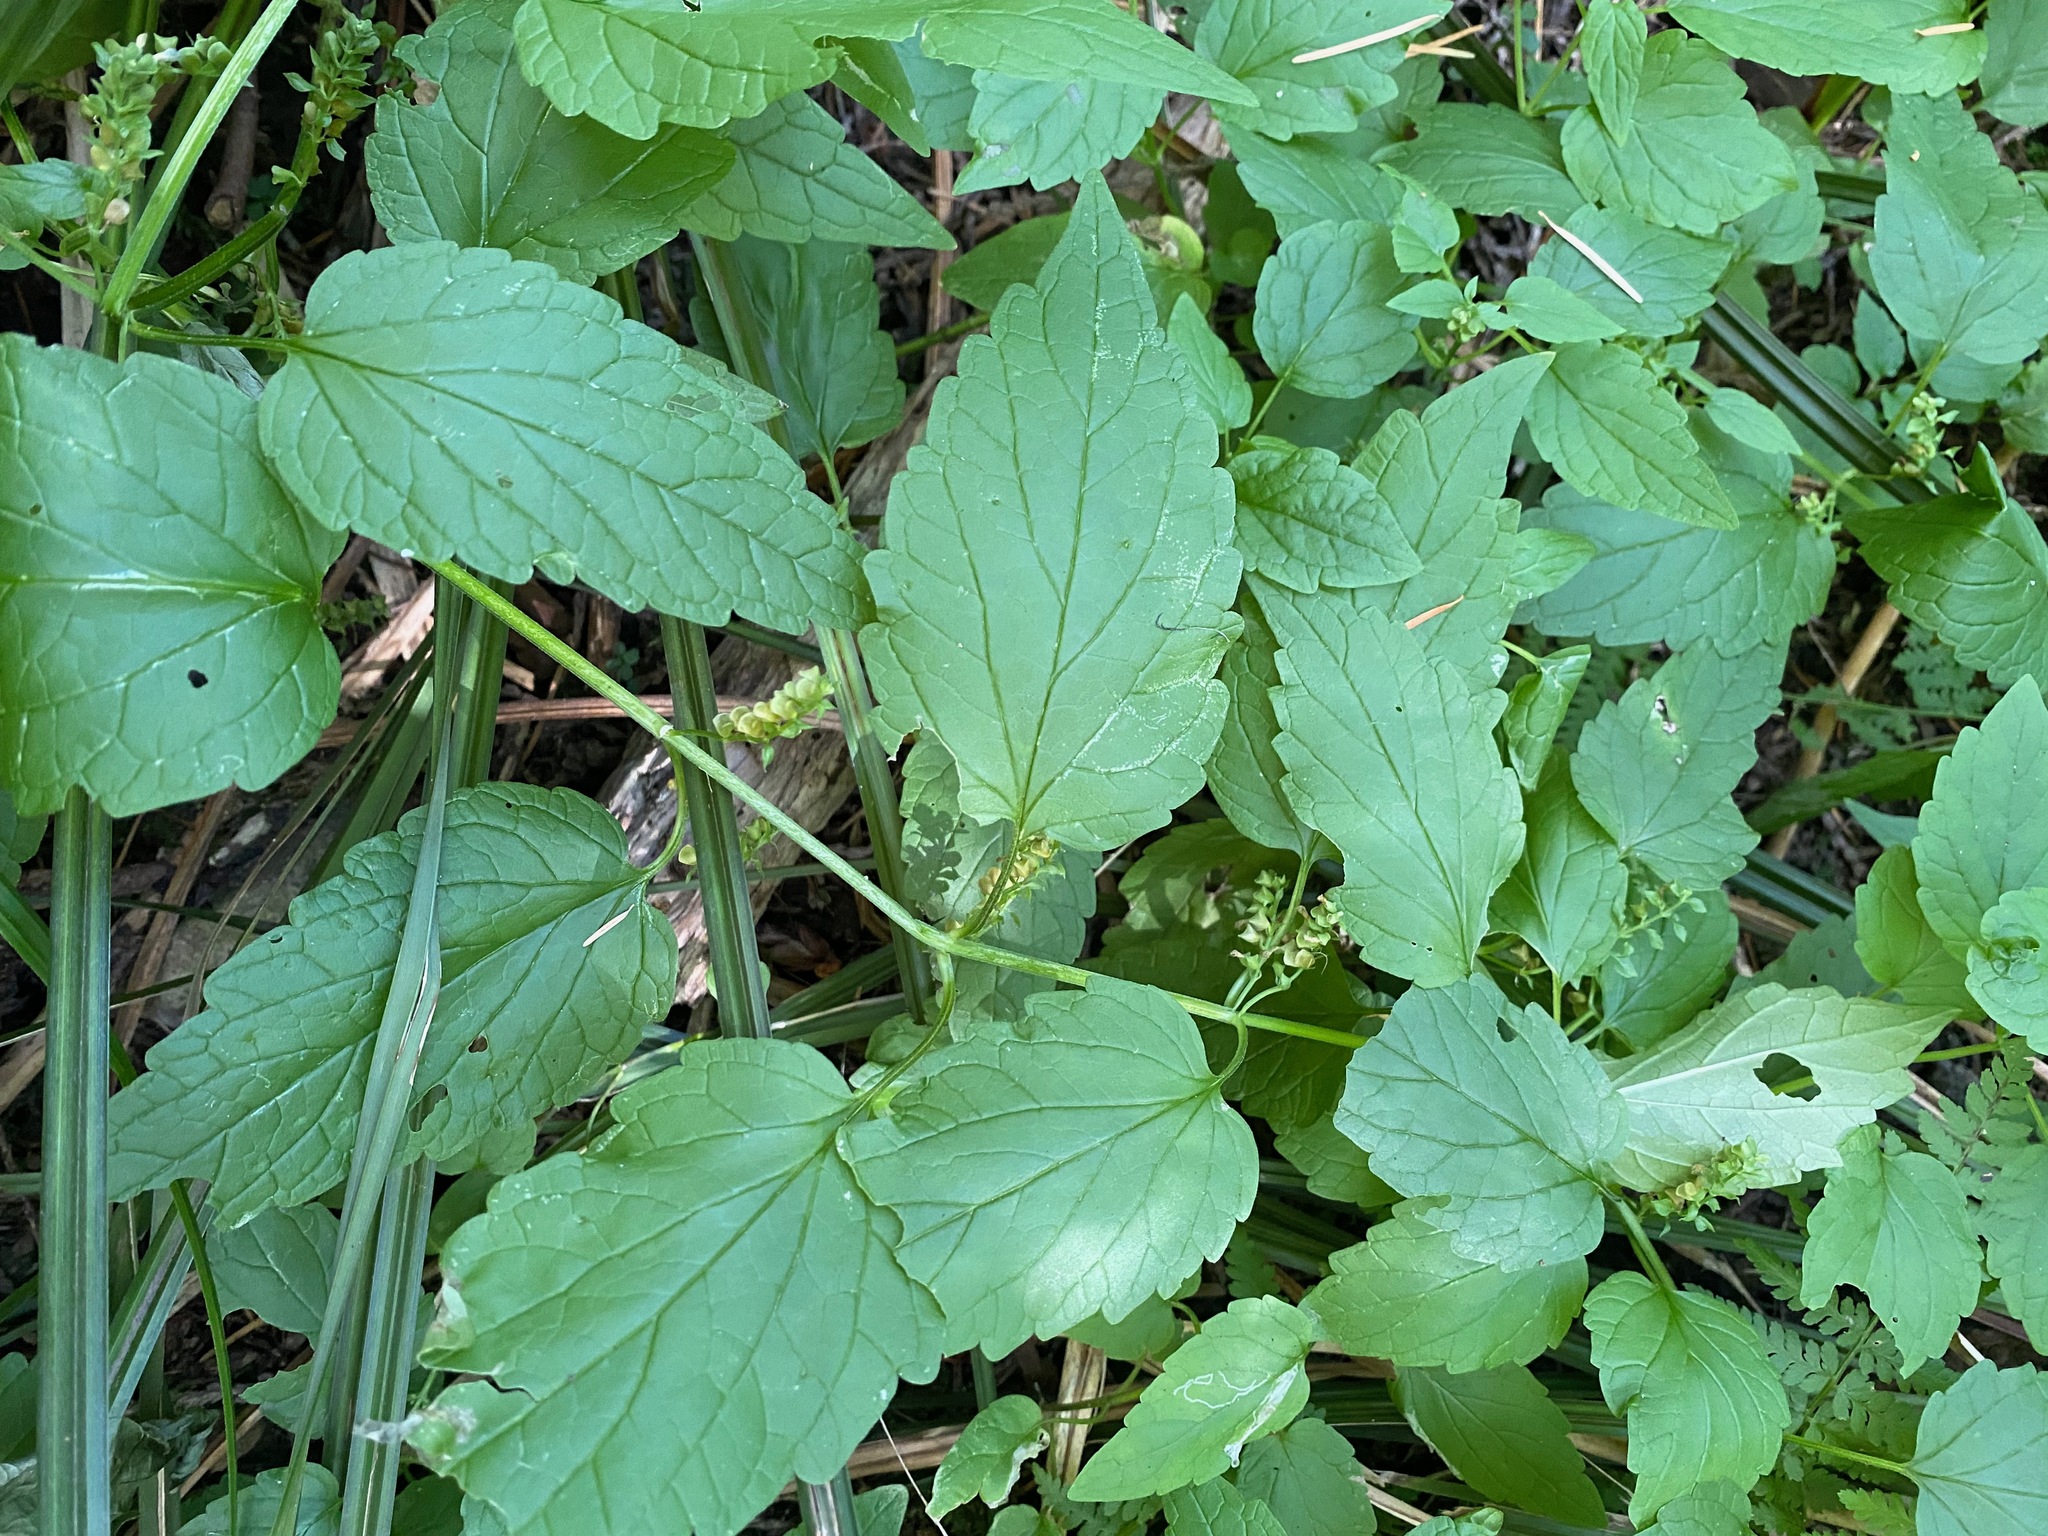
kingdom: Plantae
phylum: Tracheophyta
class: Magnoliopsida
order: Lamiales
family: Lamiaceae
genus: Scutellaria
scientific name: Scutellaria lateriflora
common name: Blue skullcap
